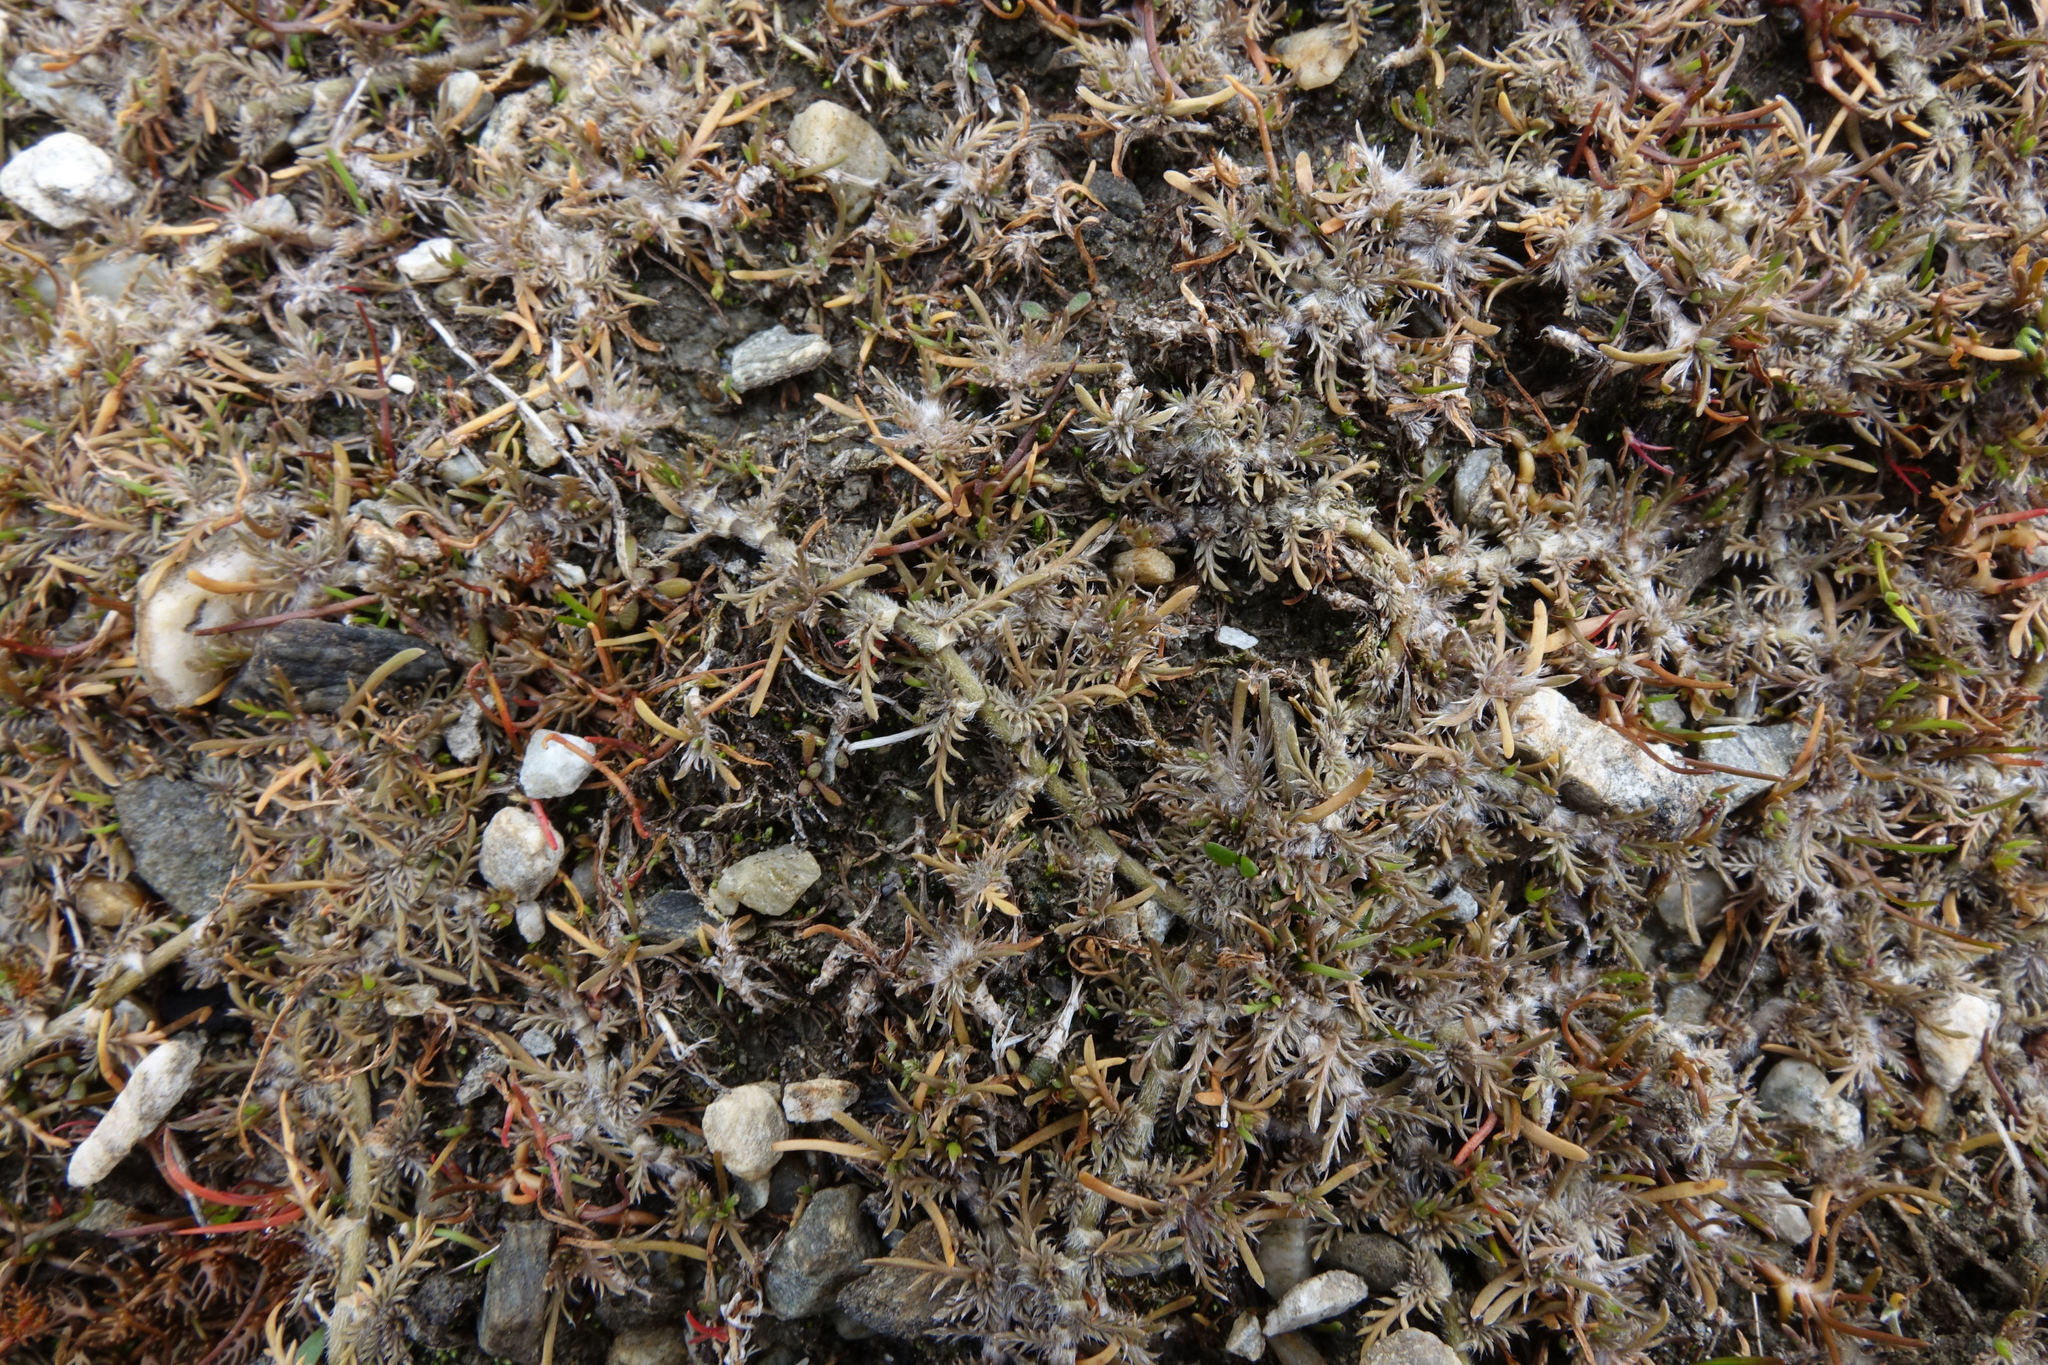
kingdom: Plantae
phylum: Tracheophyta
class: Magnoliopsida
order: Asterales
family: Asteraceae
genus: Leptinella
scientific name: Leptinella maniototo
